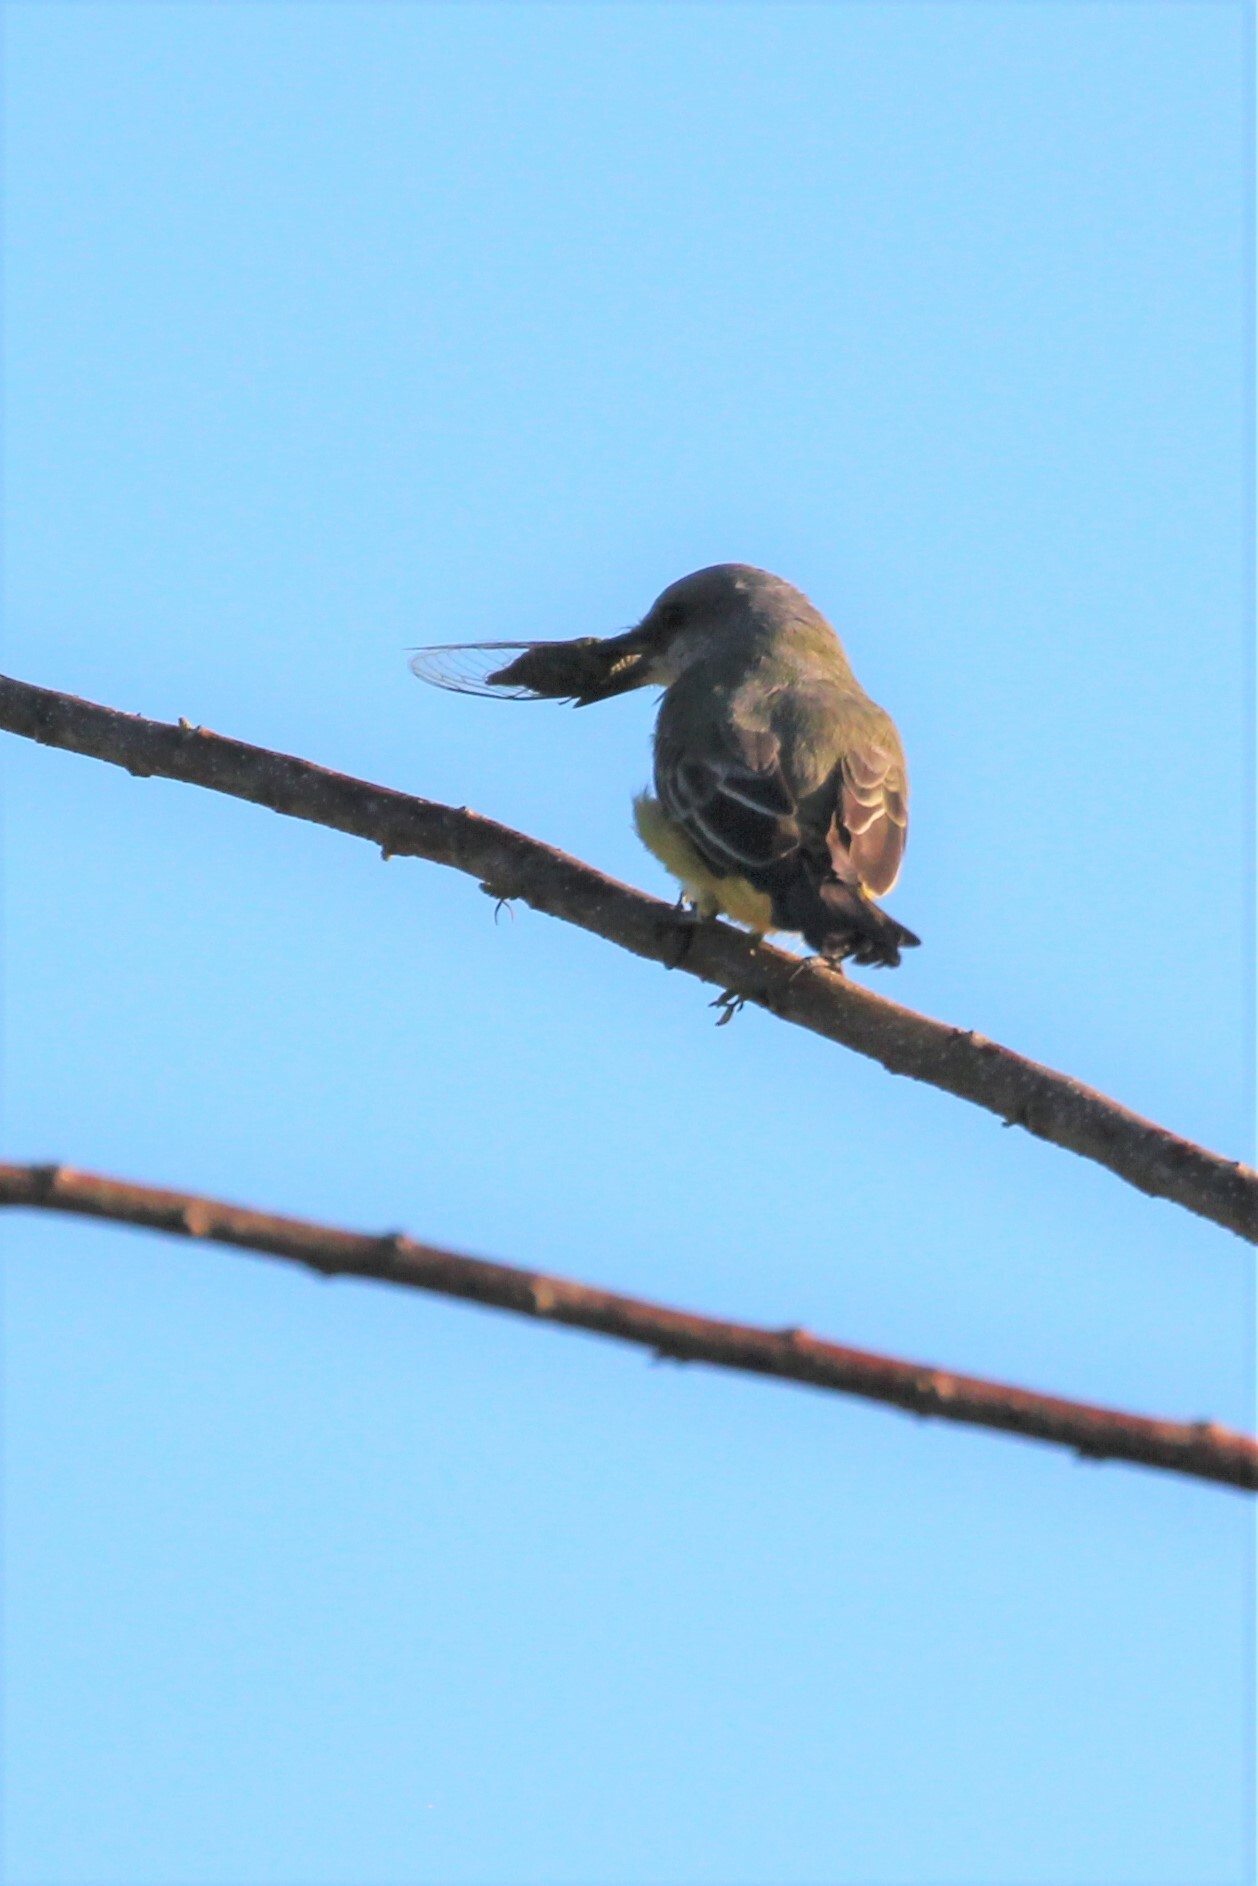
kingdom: Animalia
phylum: Chordata
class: Aves
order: Passeriformes
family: Tyrannidae
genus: Tyrannus
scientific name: Tyrannus melancholicus
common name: Tropical kingbird
